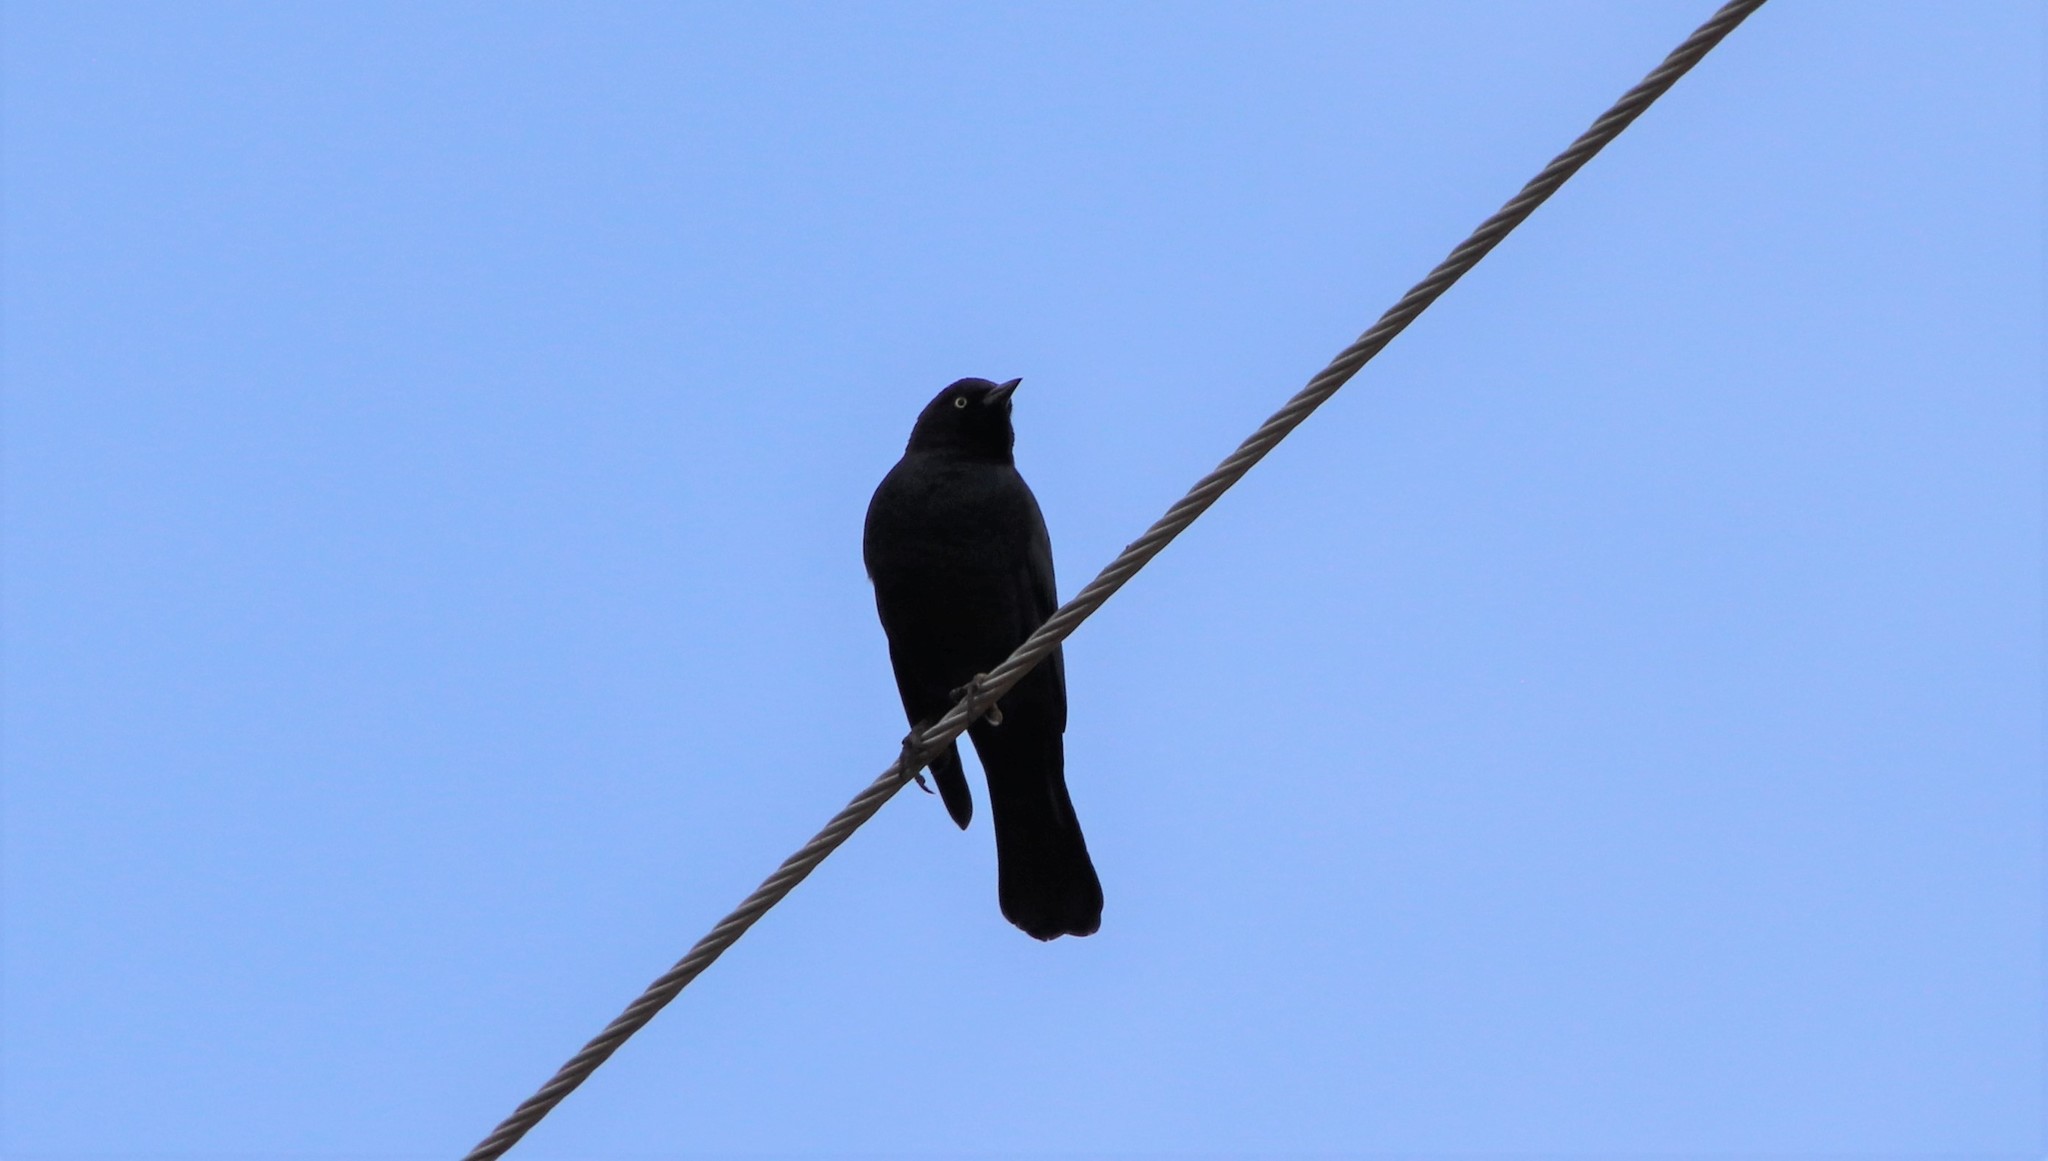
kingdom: Animalia
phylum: Chordata
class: Aves
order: Passeriformes
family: Icteridae
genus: Euphagus
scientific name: Euphagus cyanocephalus
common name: Brewer's blackbird
